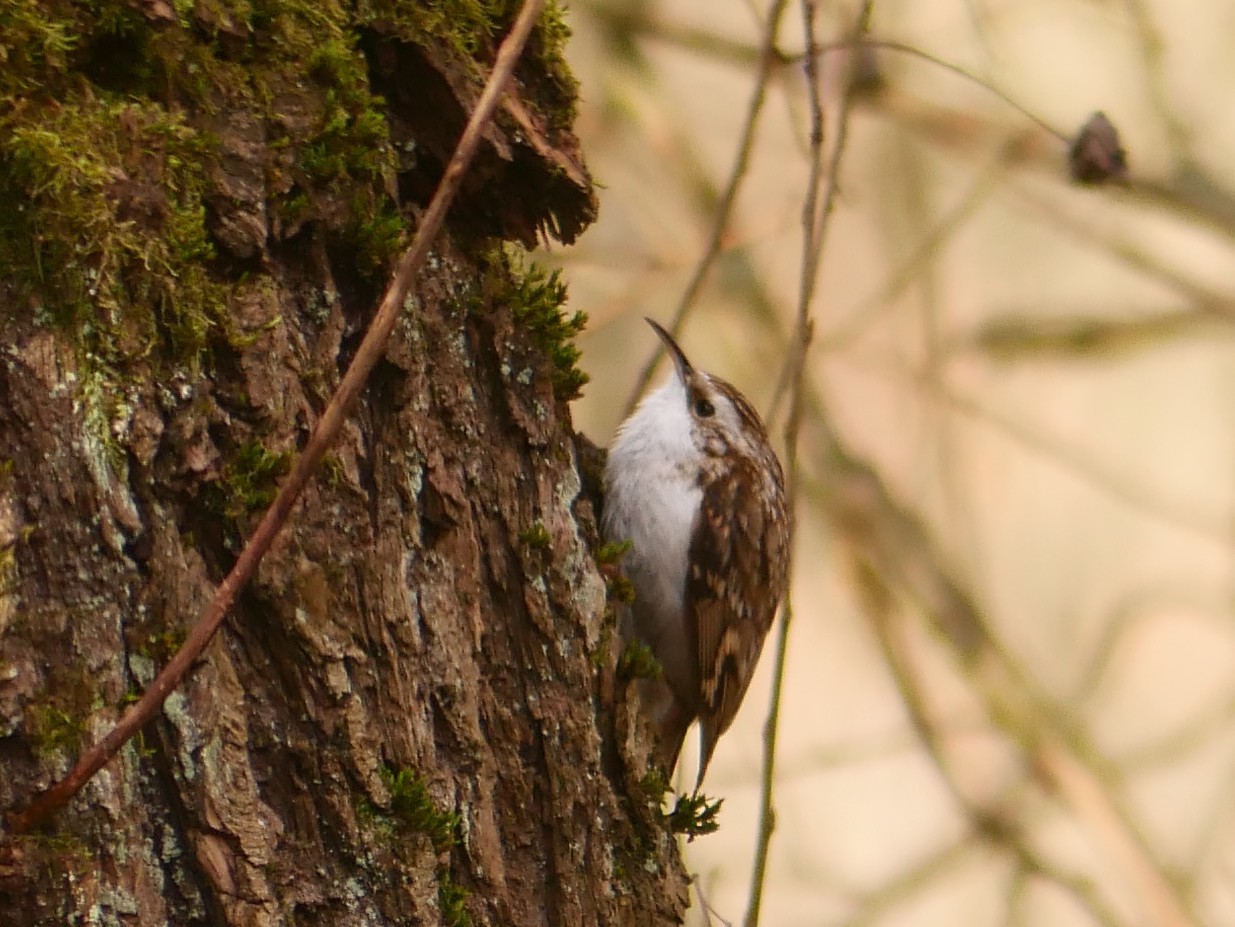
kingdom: Animalia
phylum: Chordata
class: Aves
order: Passeriformes
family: Certhiidae
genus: Certhia
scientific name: Certhia familiaris
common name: Eurasian treecreeper
